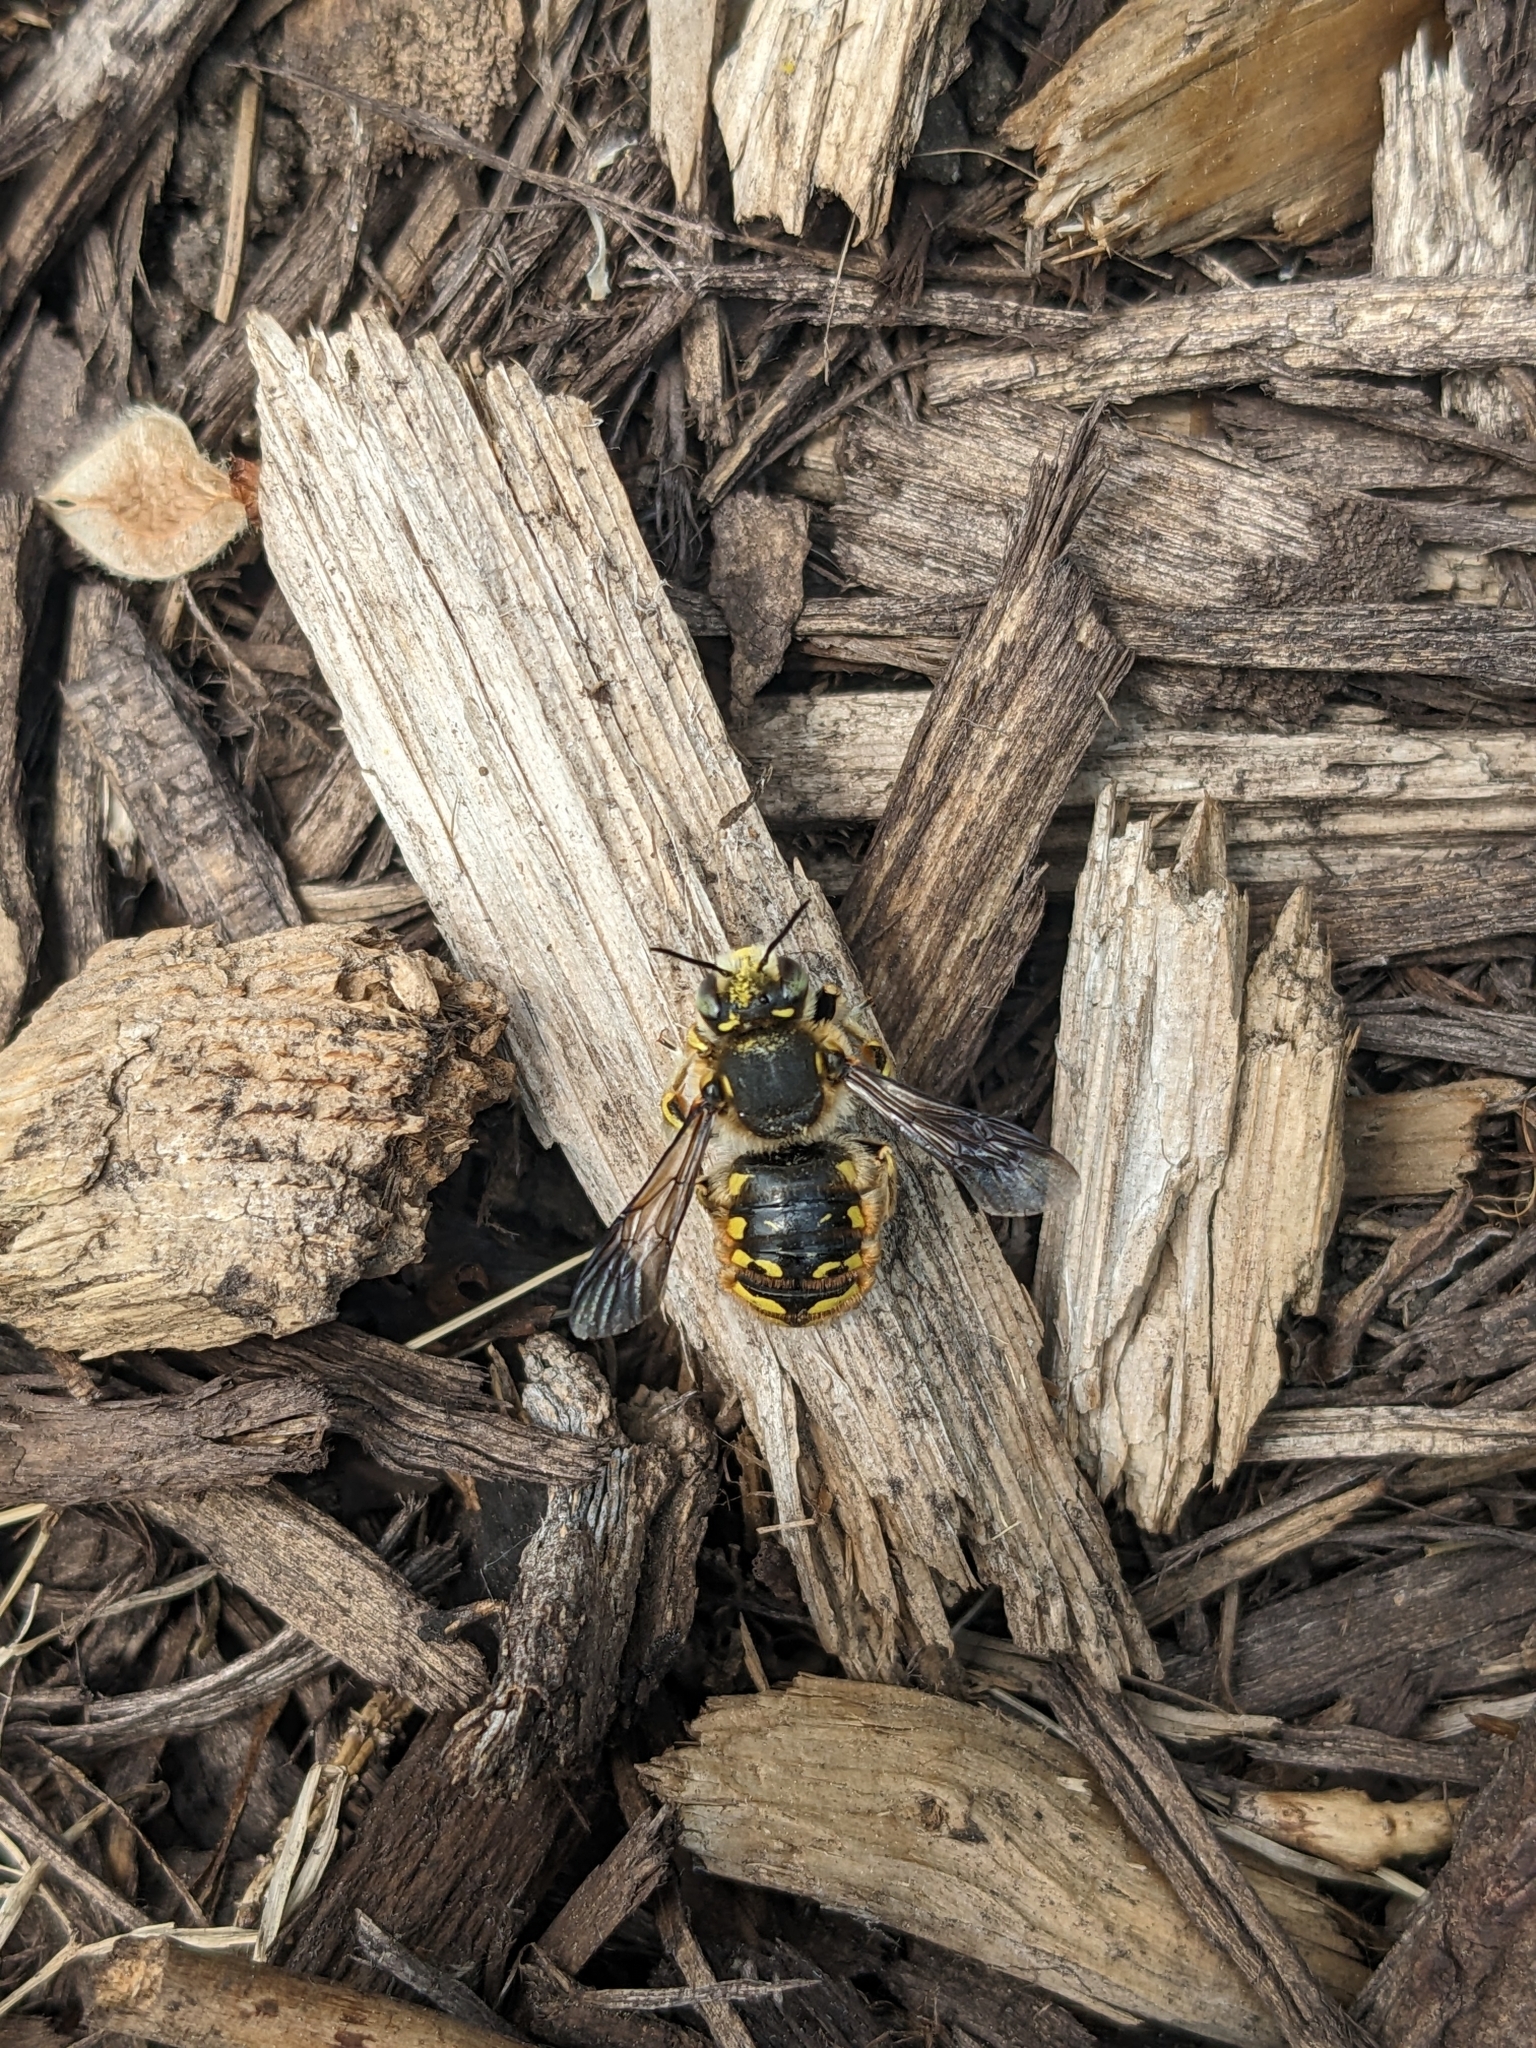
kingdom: Animalia
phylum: Arthropoda
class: Insecta
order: Hymenoptera
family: Megachilidae
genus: Anthidium
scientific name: Anthidium manicatum
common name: Wool carder bee
